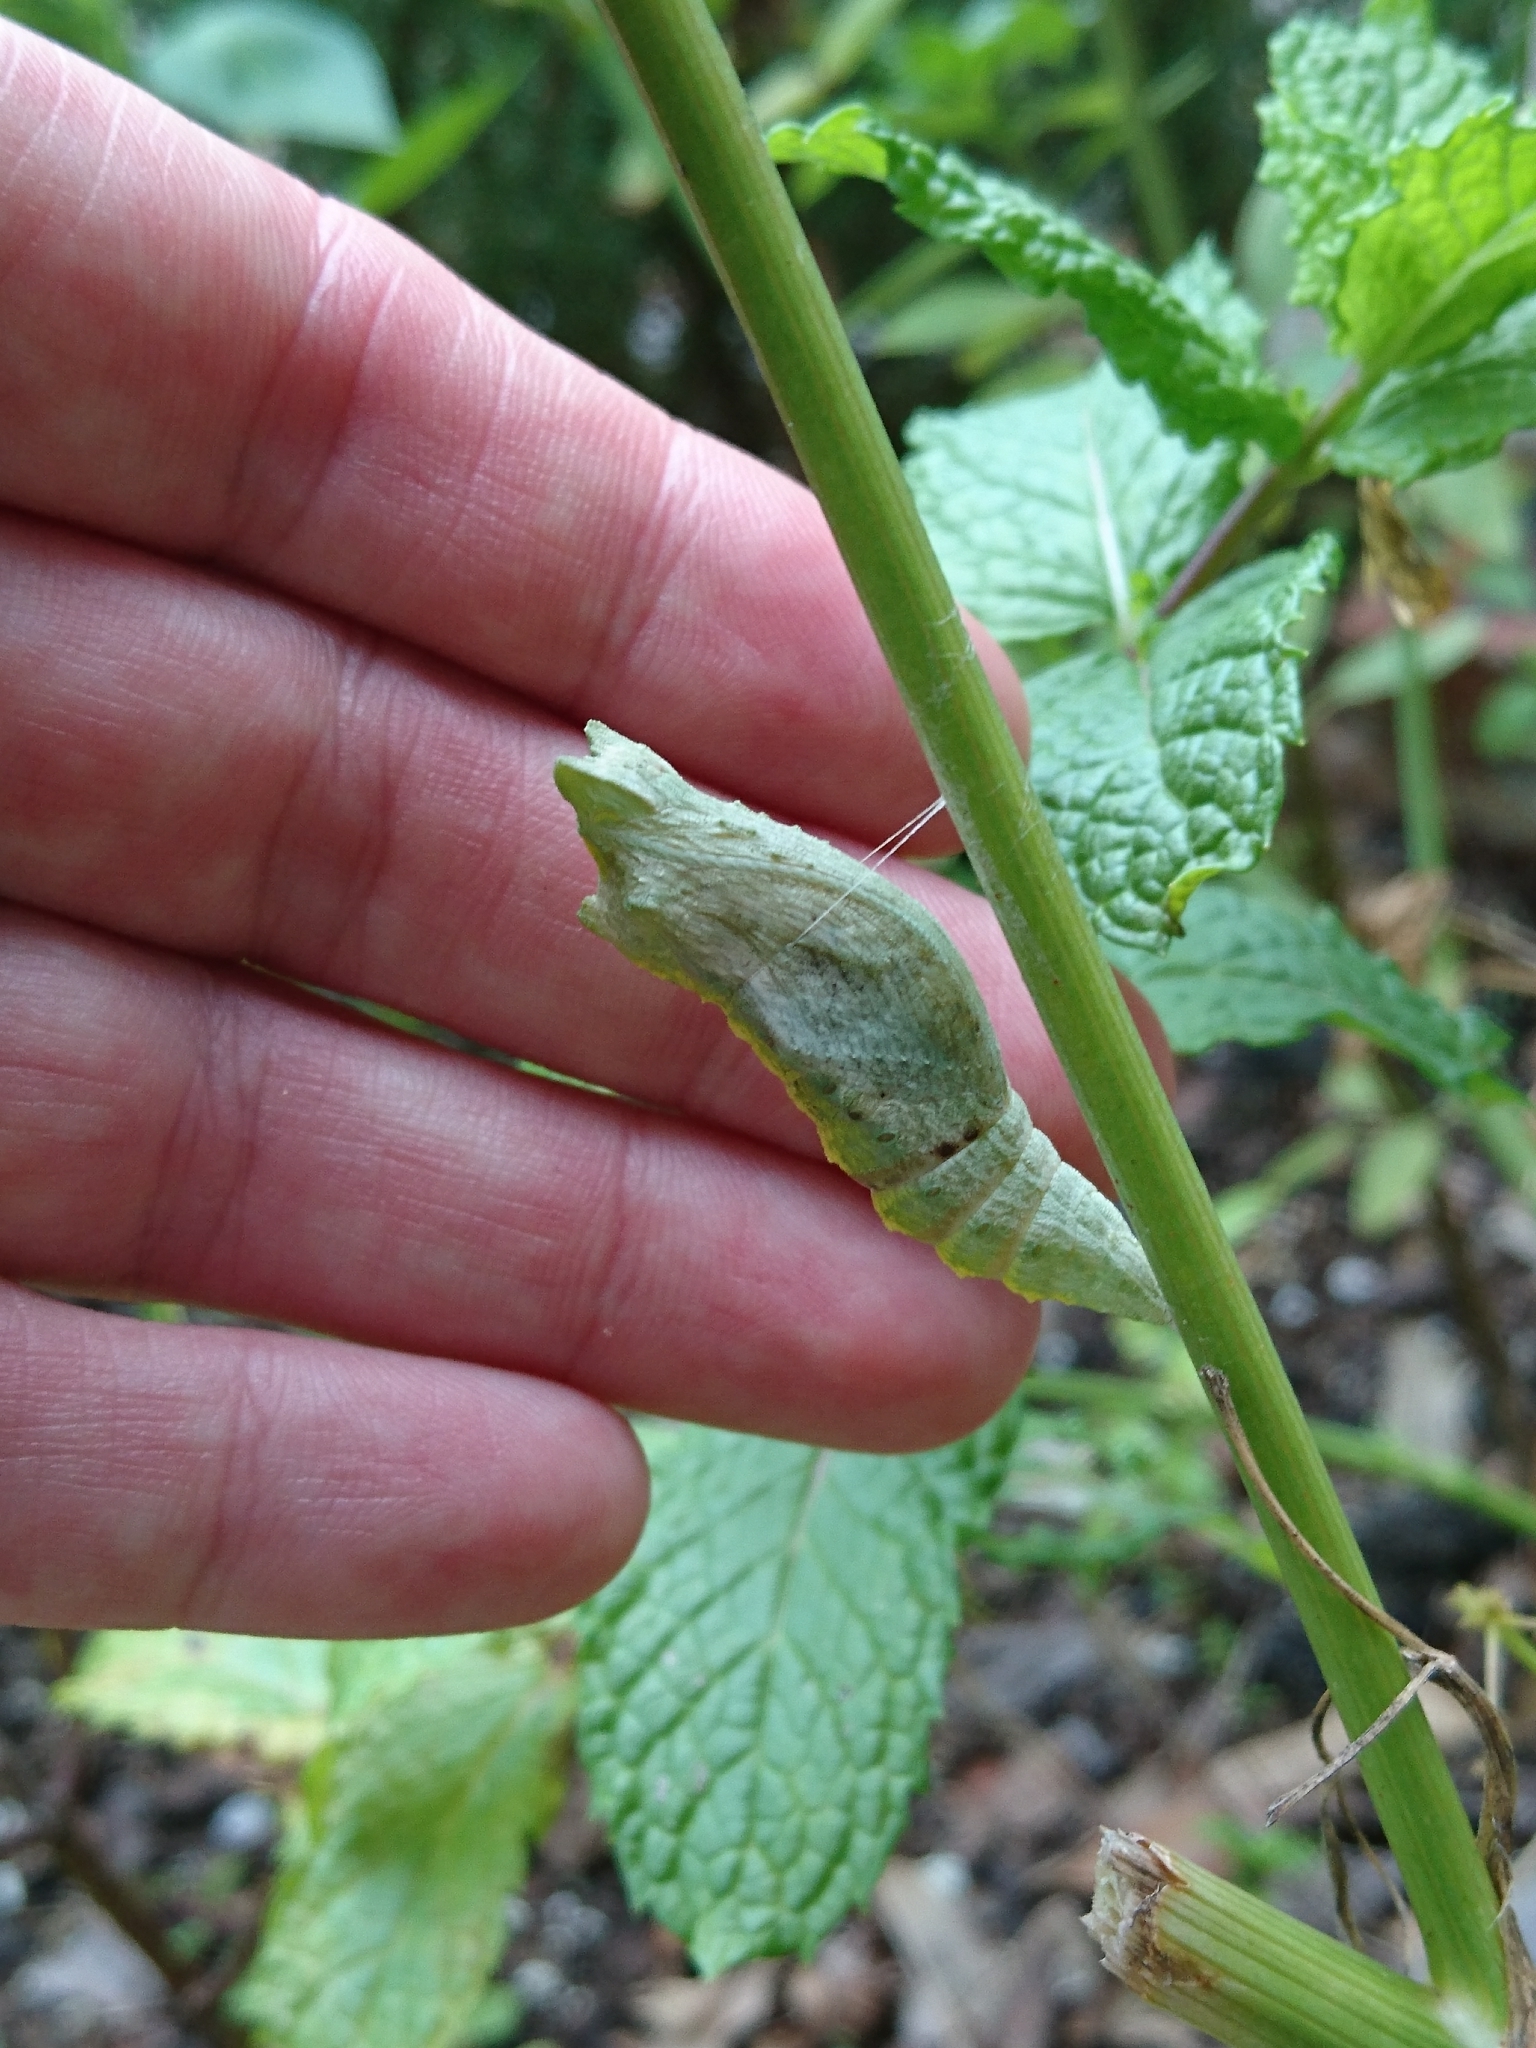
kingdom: Animalia
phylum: Arthropoda
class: Insecta
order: Lepidoptera
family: Papilionidae
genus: Papilio
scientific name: Papilio polyxenes
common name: Black swallowtail
